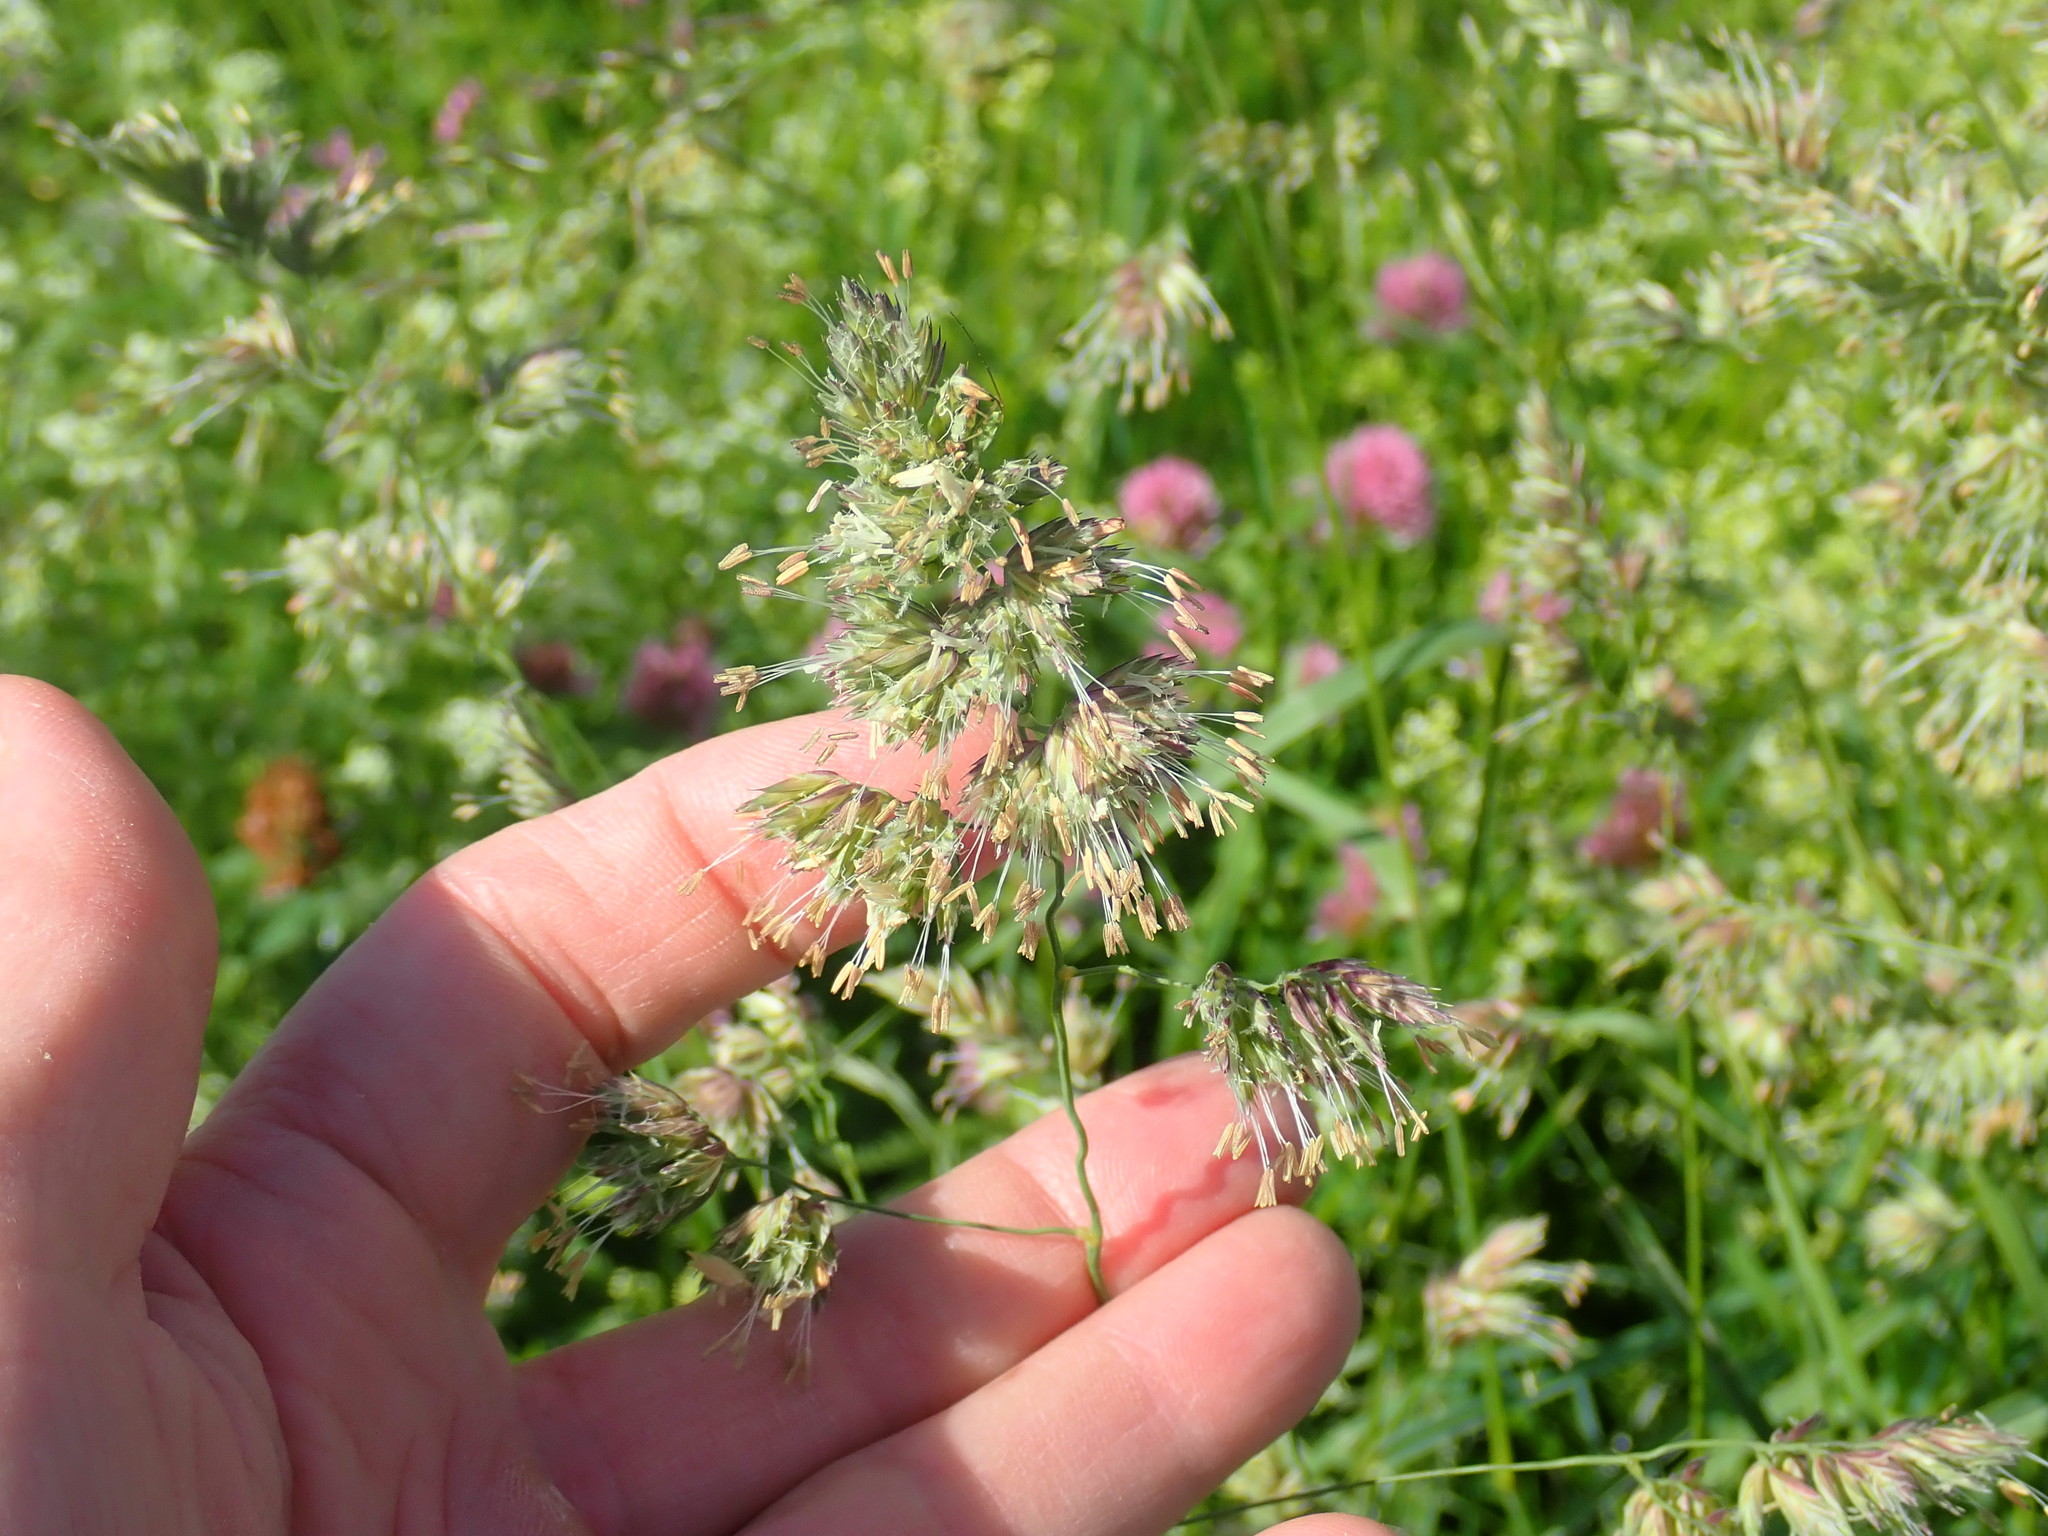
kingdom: Plantae
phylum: Tracheophyta
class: Liliopsida
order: Poales
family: Poaceae
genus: Dactylis
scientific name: Dactylis glomerata
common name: Orchardgrass
